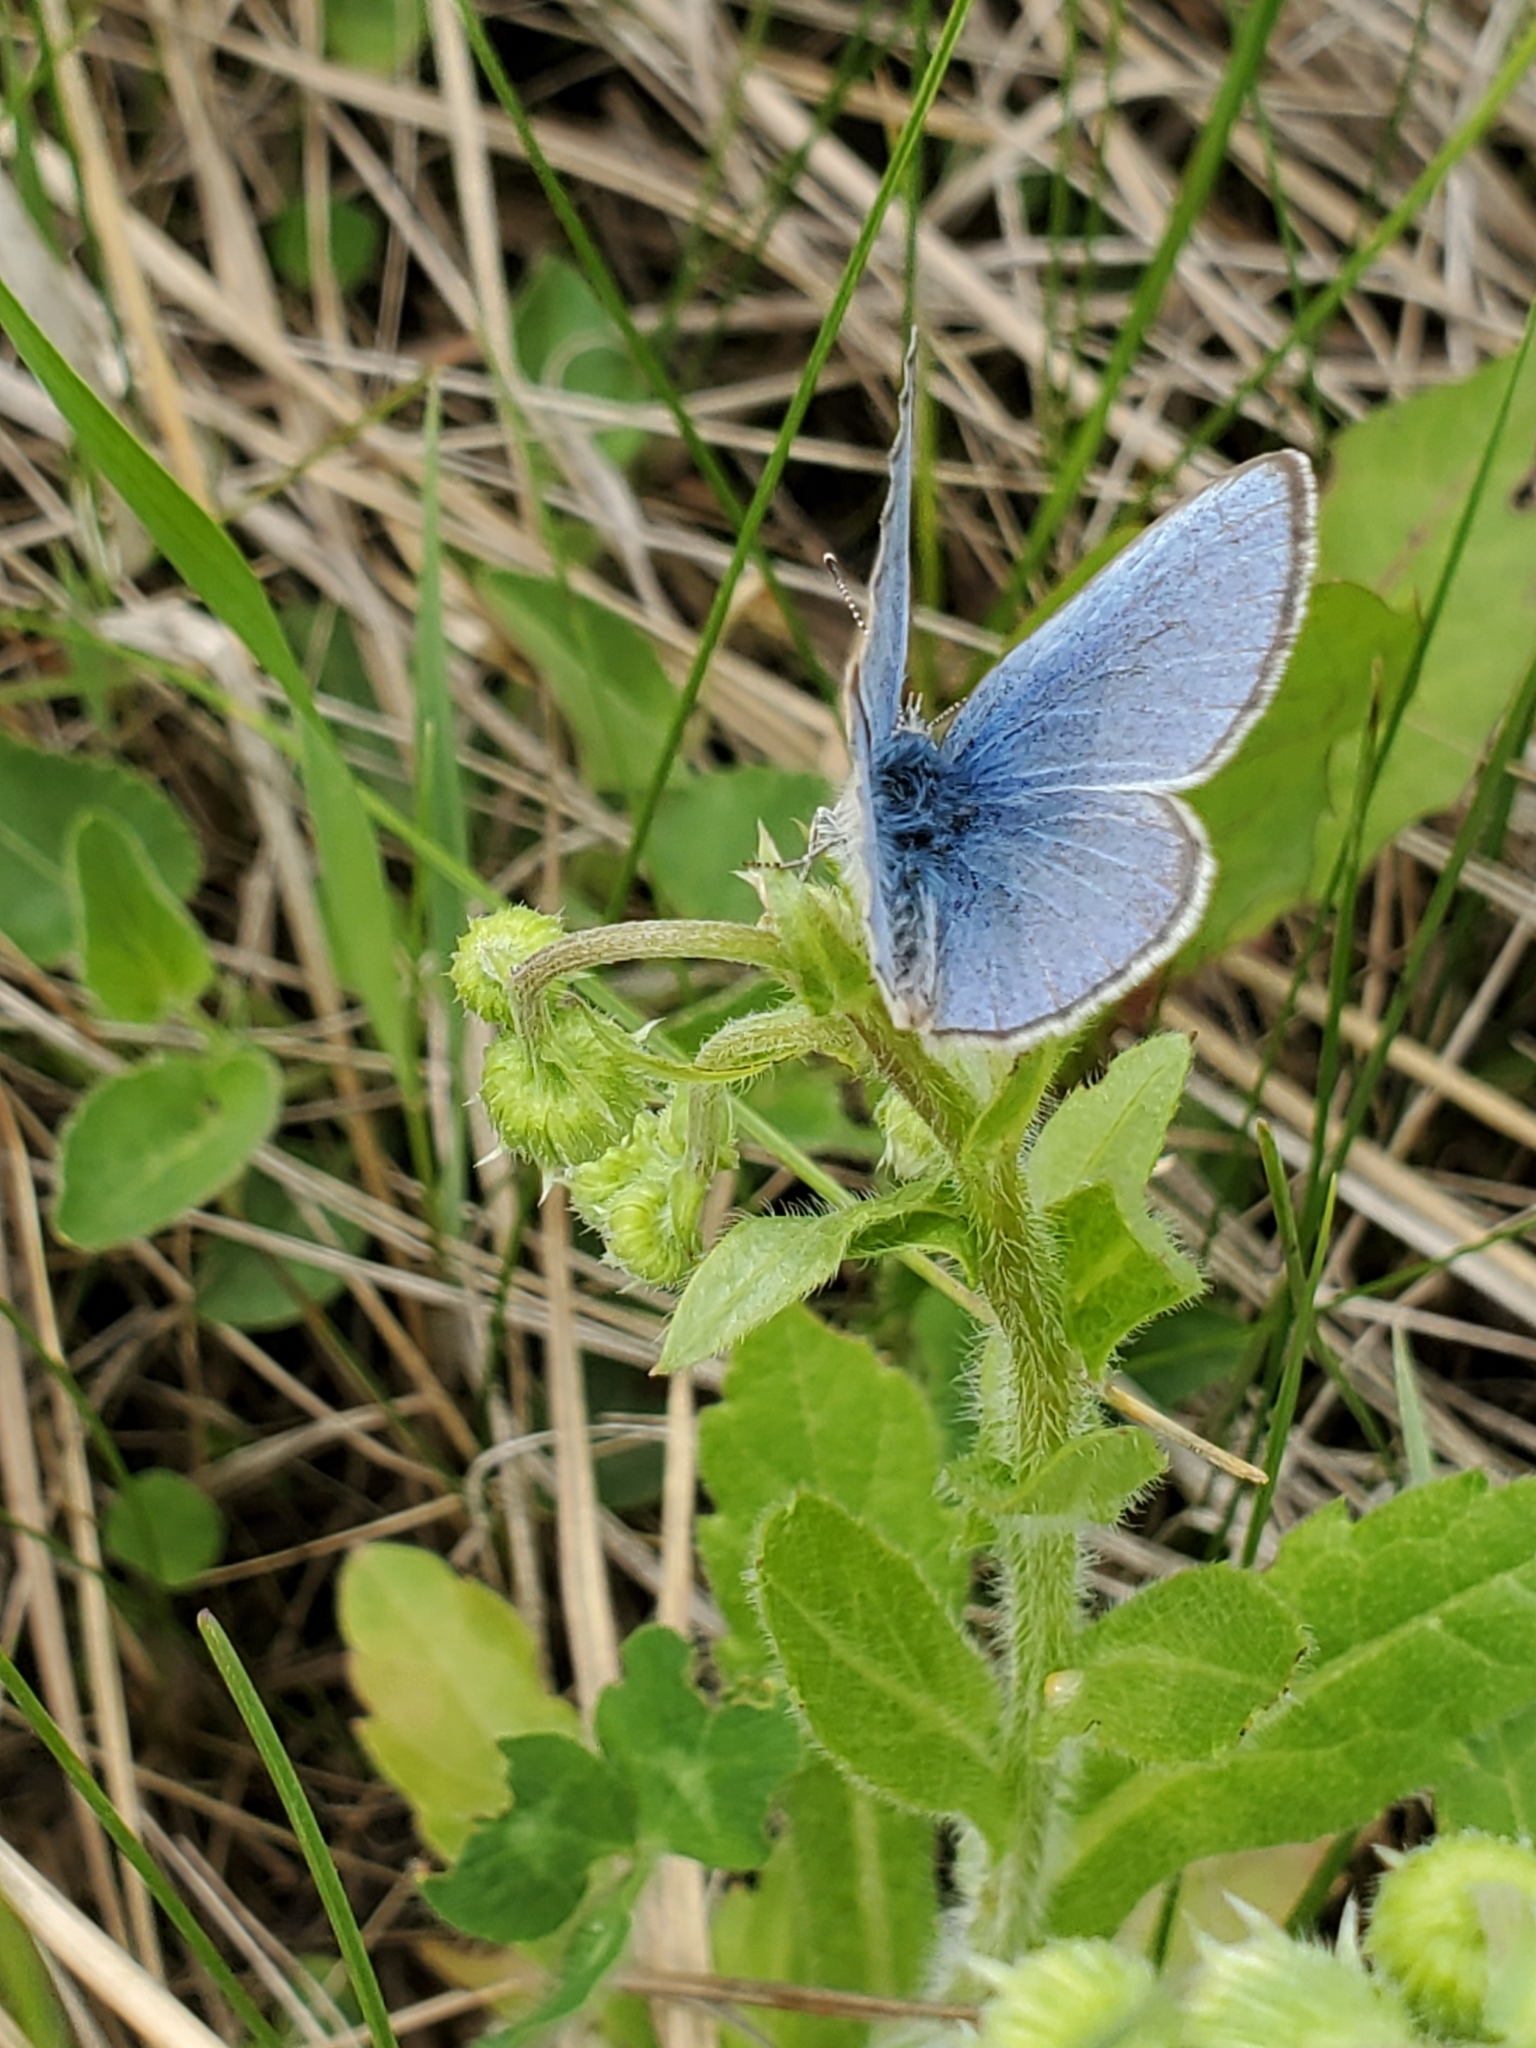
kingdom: Animalia
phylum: Arthropoda
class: Insecta
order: Lepidoptera
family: Lycaenidae
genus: Glaucopsyche
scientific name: Glaucopsyche lygdamus
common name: Silvery blue
